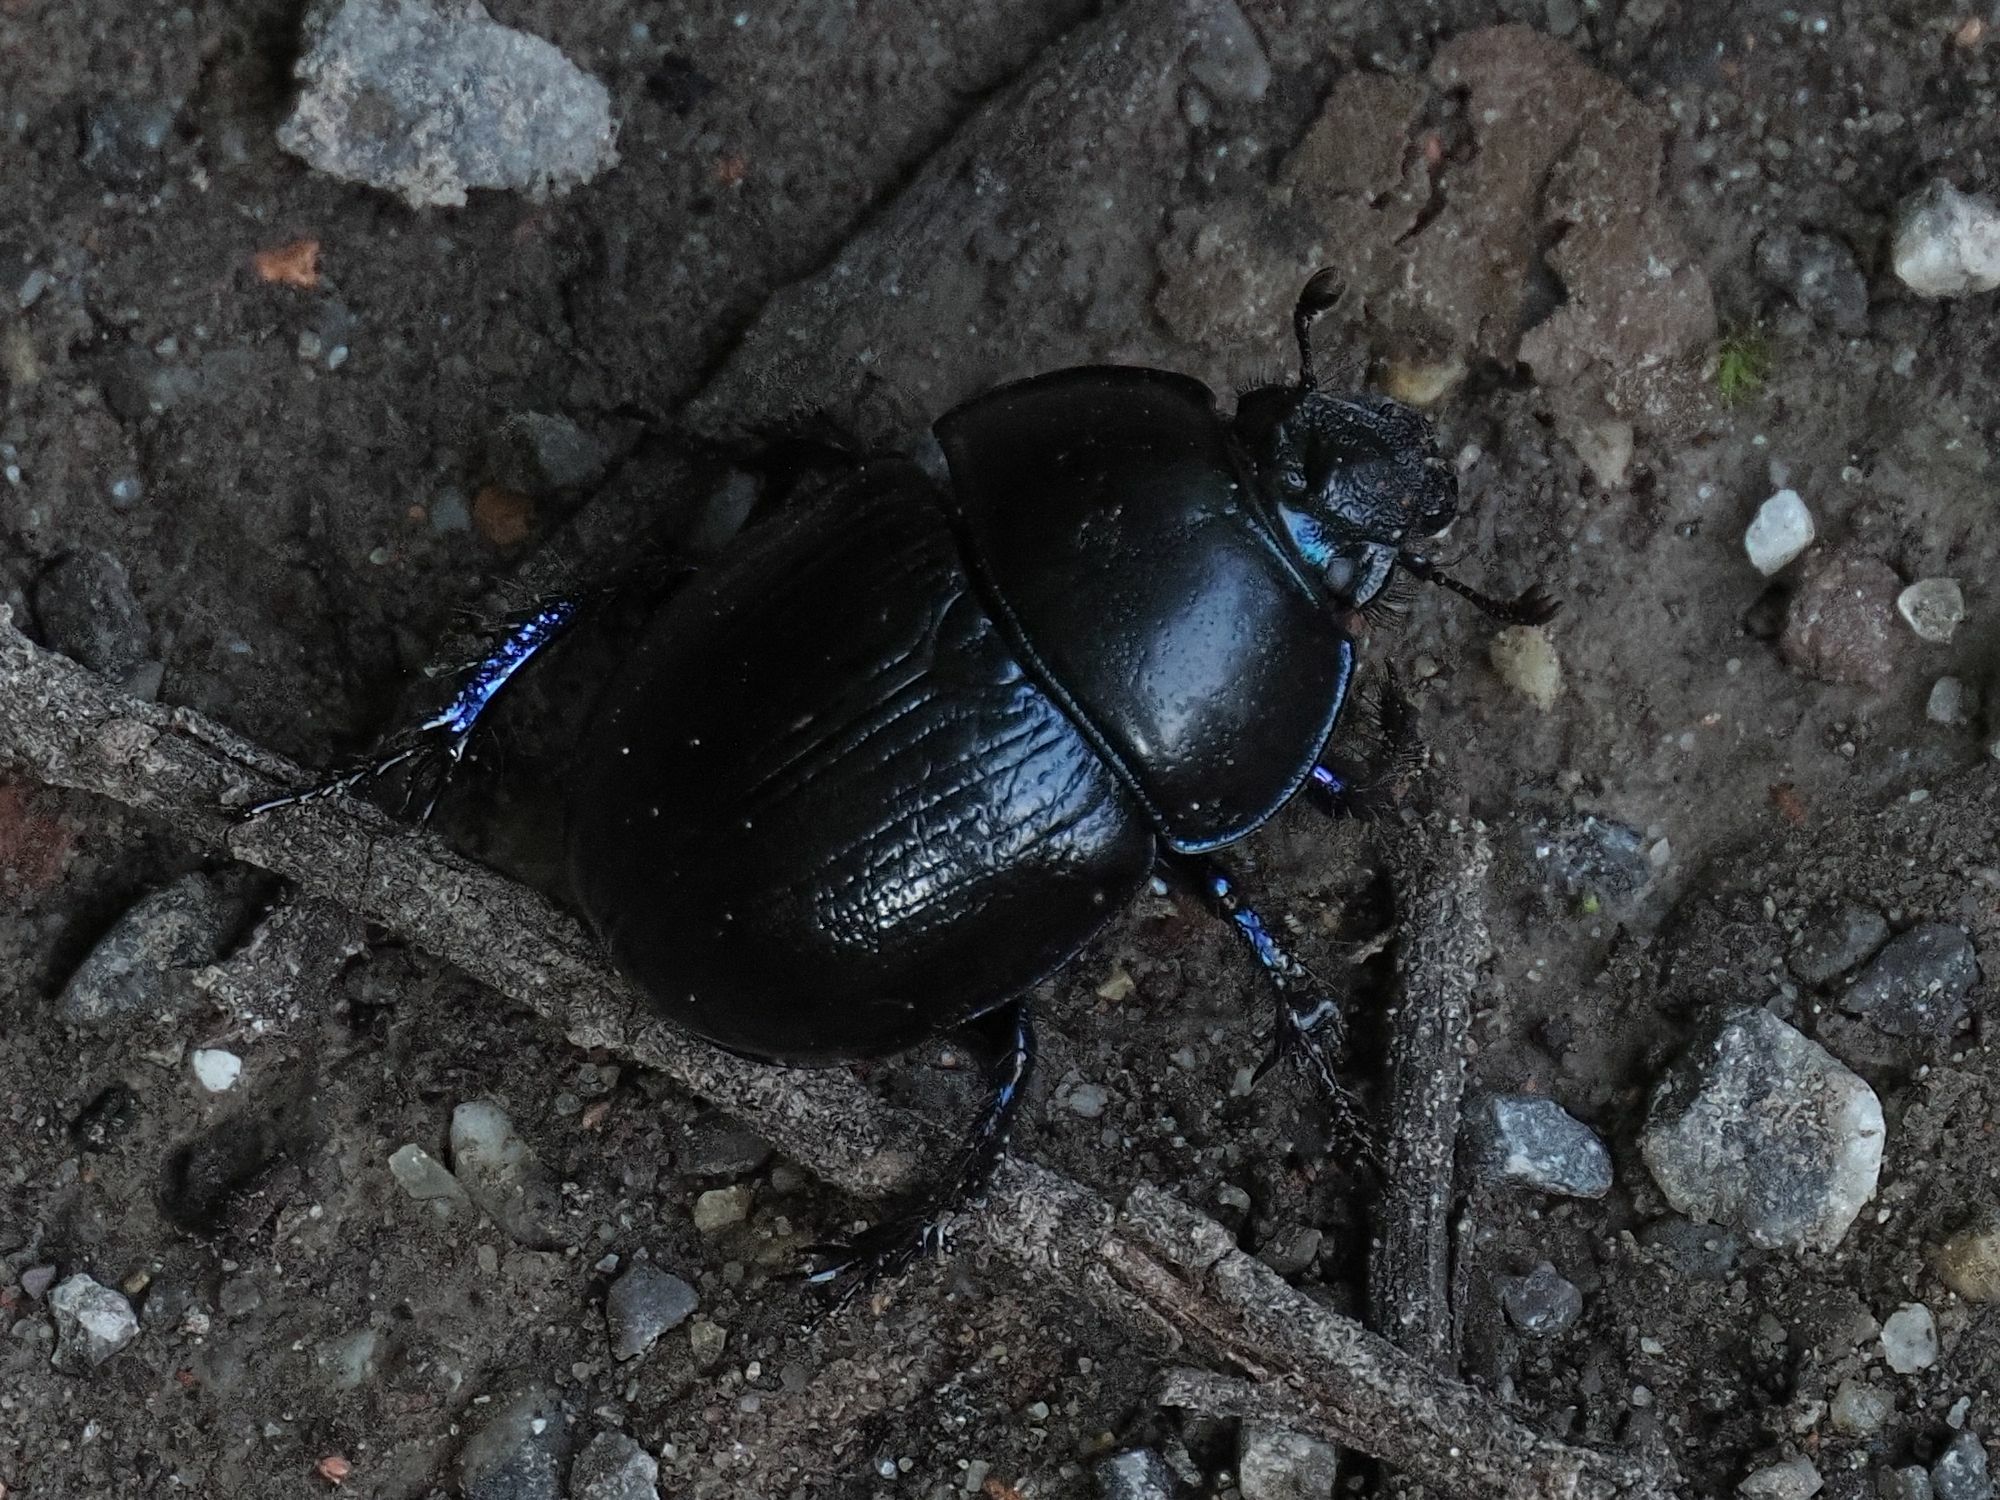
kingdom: Animalia
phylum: Arthropoda
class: Insecta
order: Coleoptera
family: Geotrupidae
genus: Anoplotrupes
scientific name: Anoplotrupes stercorosus
